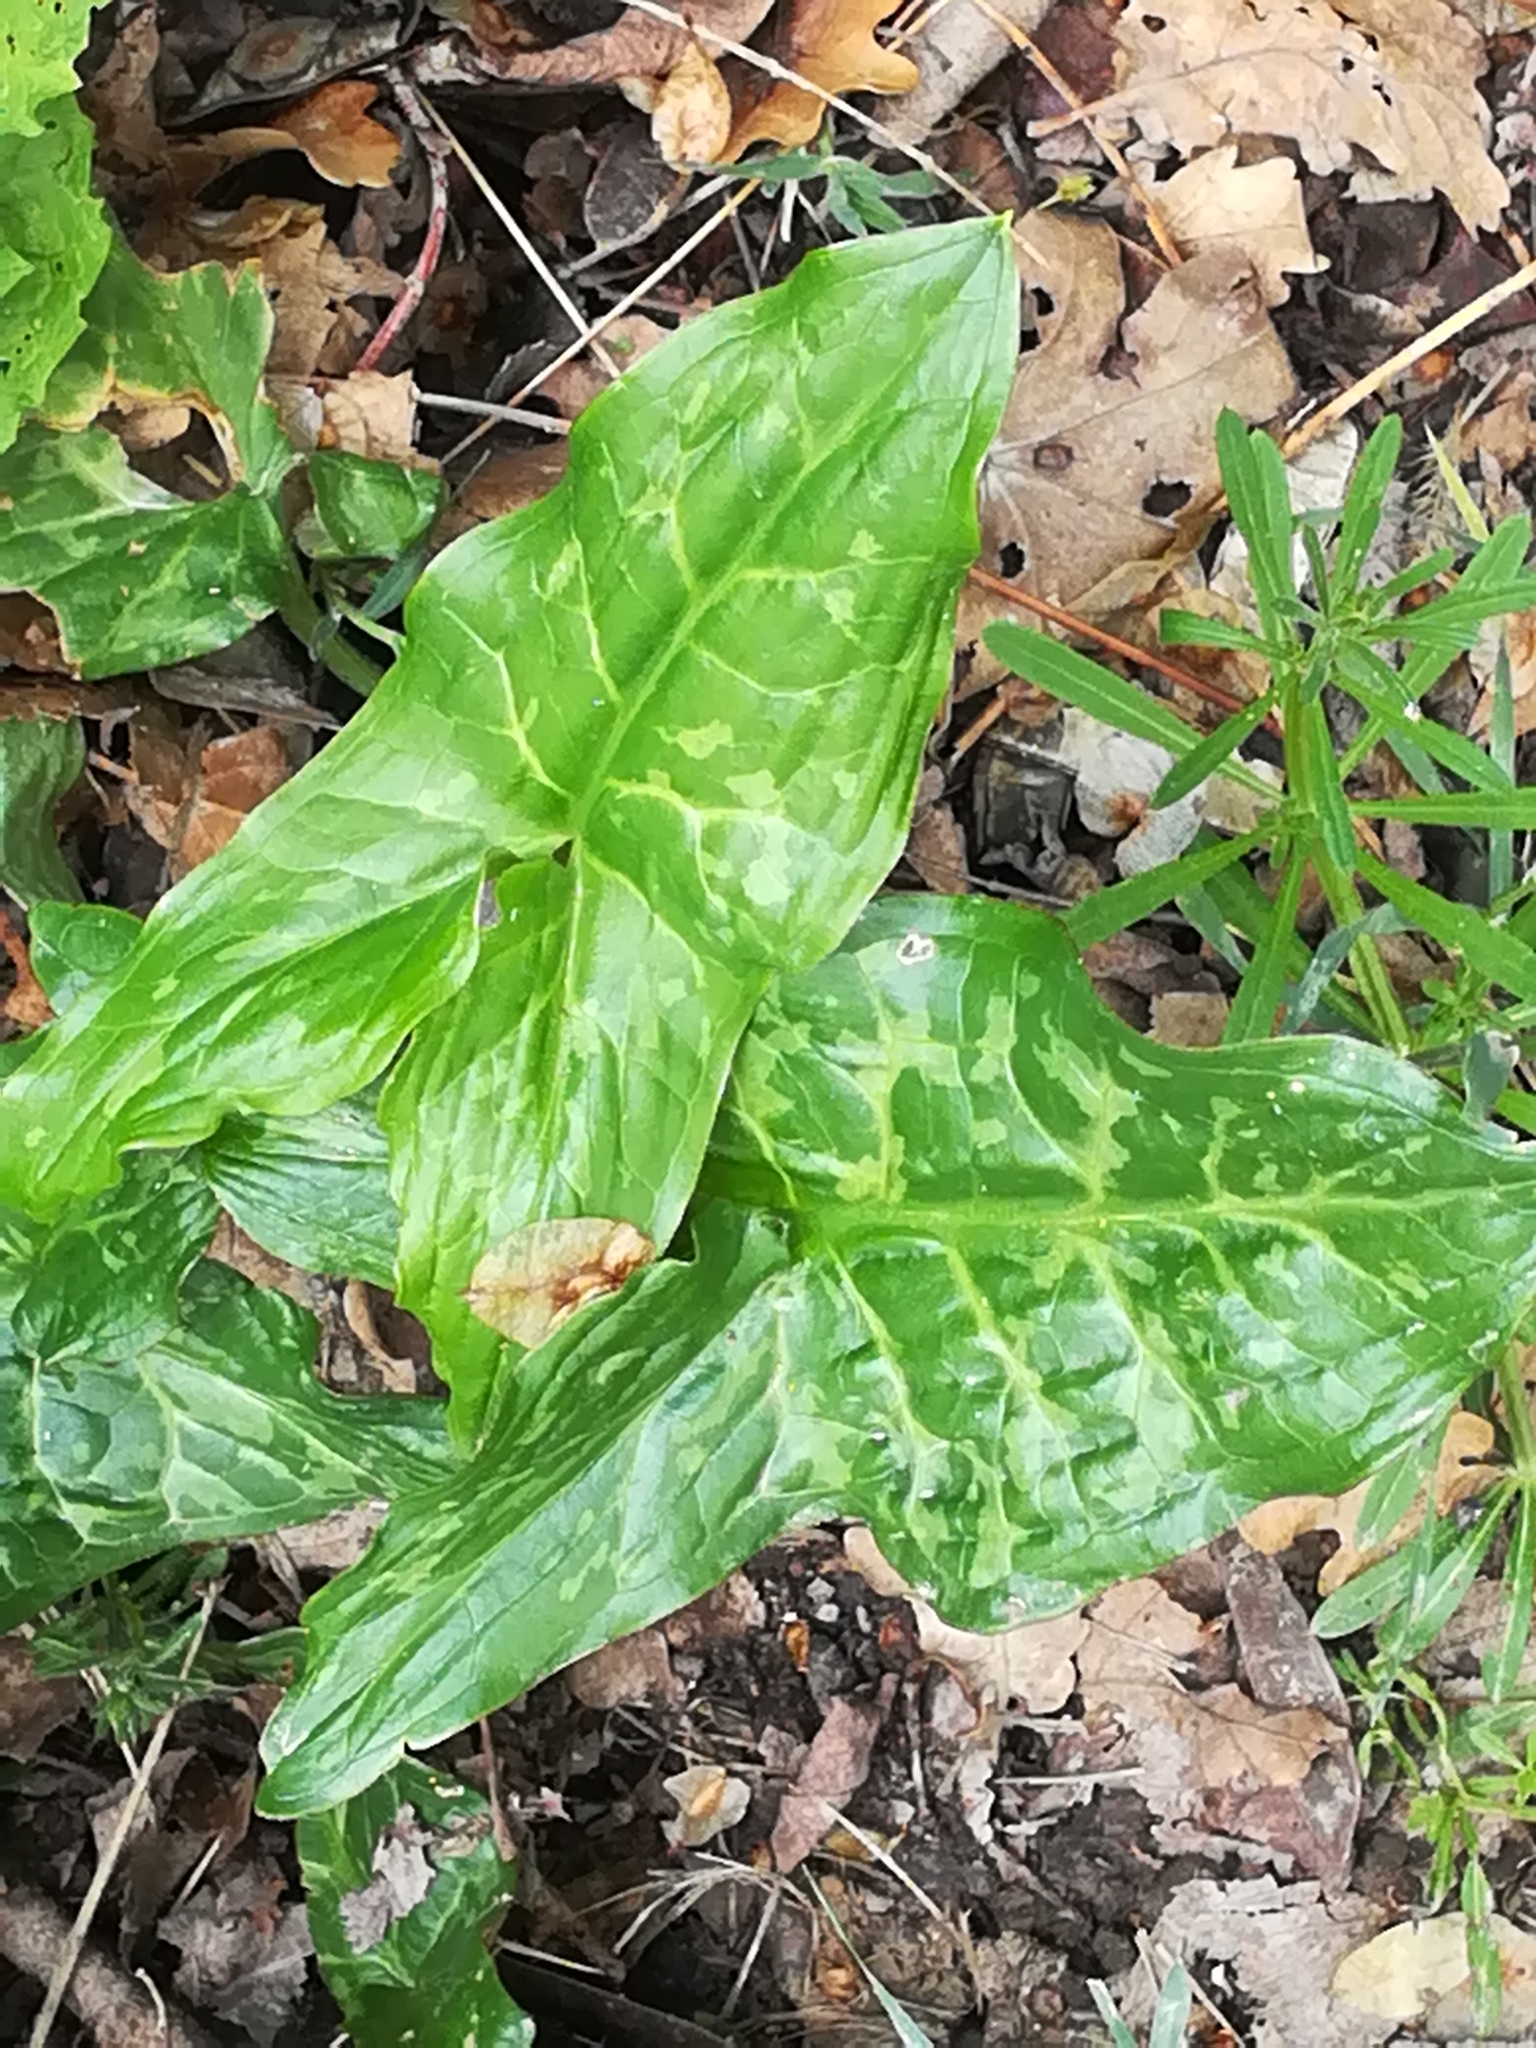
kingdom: Plantae
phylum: Tracheophyta
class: Liliopsida
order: Alismatales
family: Araceae
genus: Arum
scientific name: Arum italicum
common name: Italian lords-and-ladies
